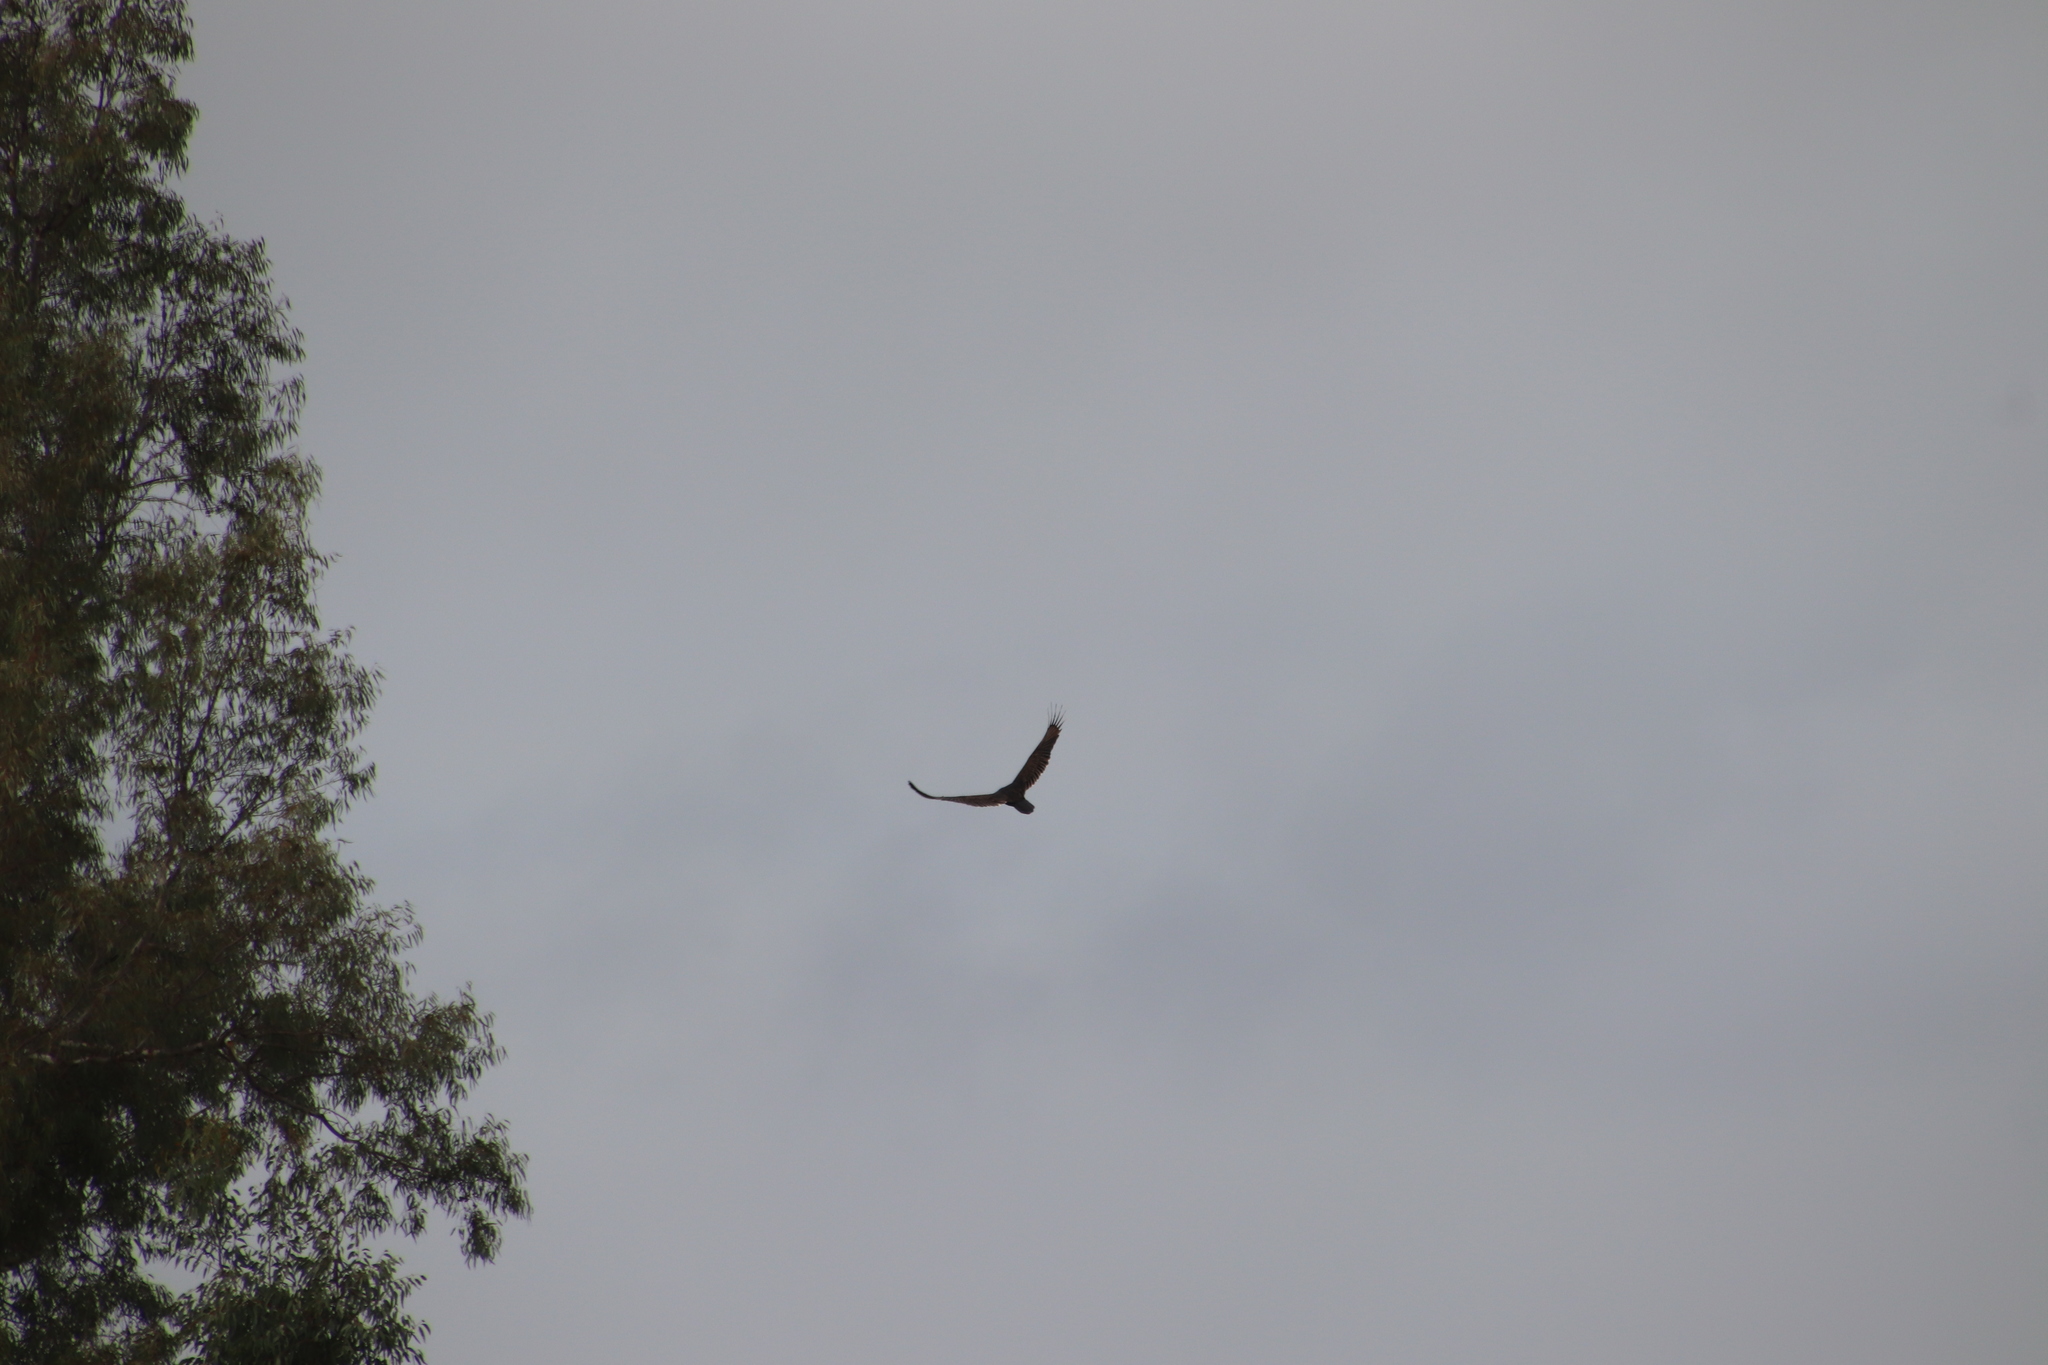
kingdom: Animalia
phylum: Chordata
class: Aves
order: Accipitriformes
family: Cathartidae
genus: Cathartes
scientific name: Cathartes aura
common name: Turkey vulture
